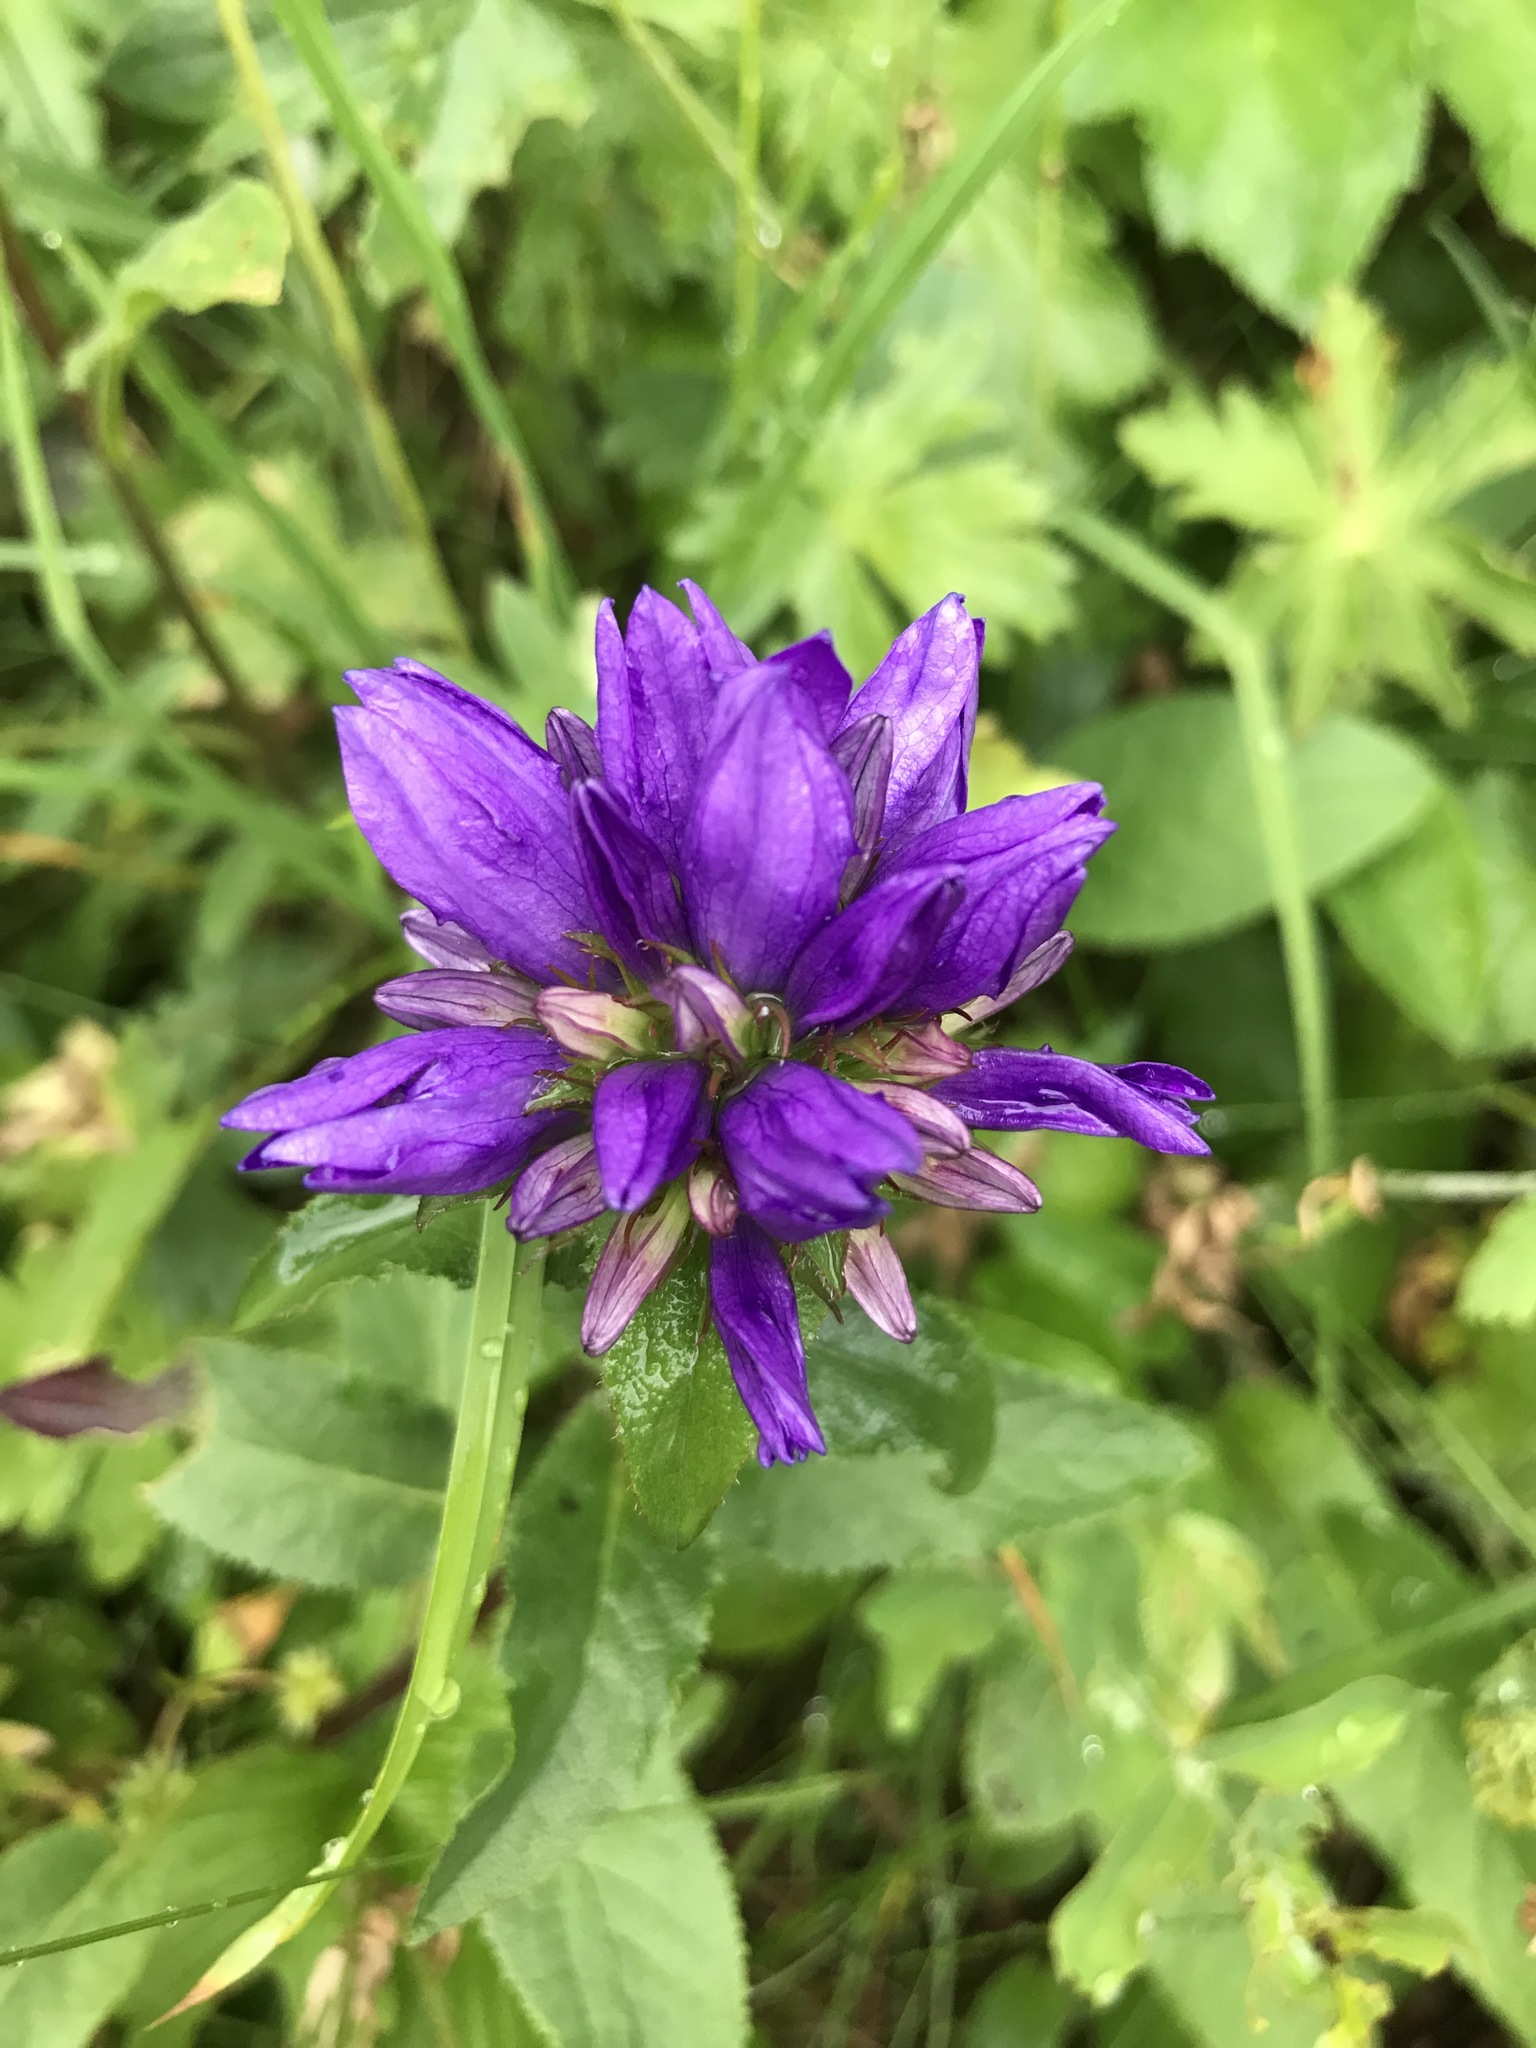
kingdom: Plantae
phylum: Tracheophyta
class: Magnoliopsida
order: Asterales
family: Campanulaceae
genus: Campanula
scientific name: Campanula glomerata
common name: Clustered bellflower
